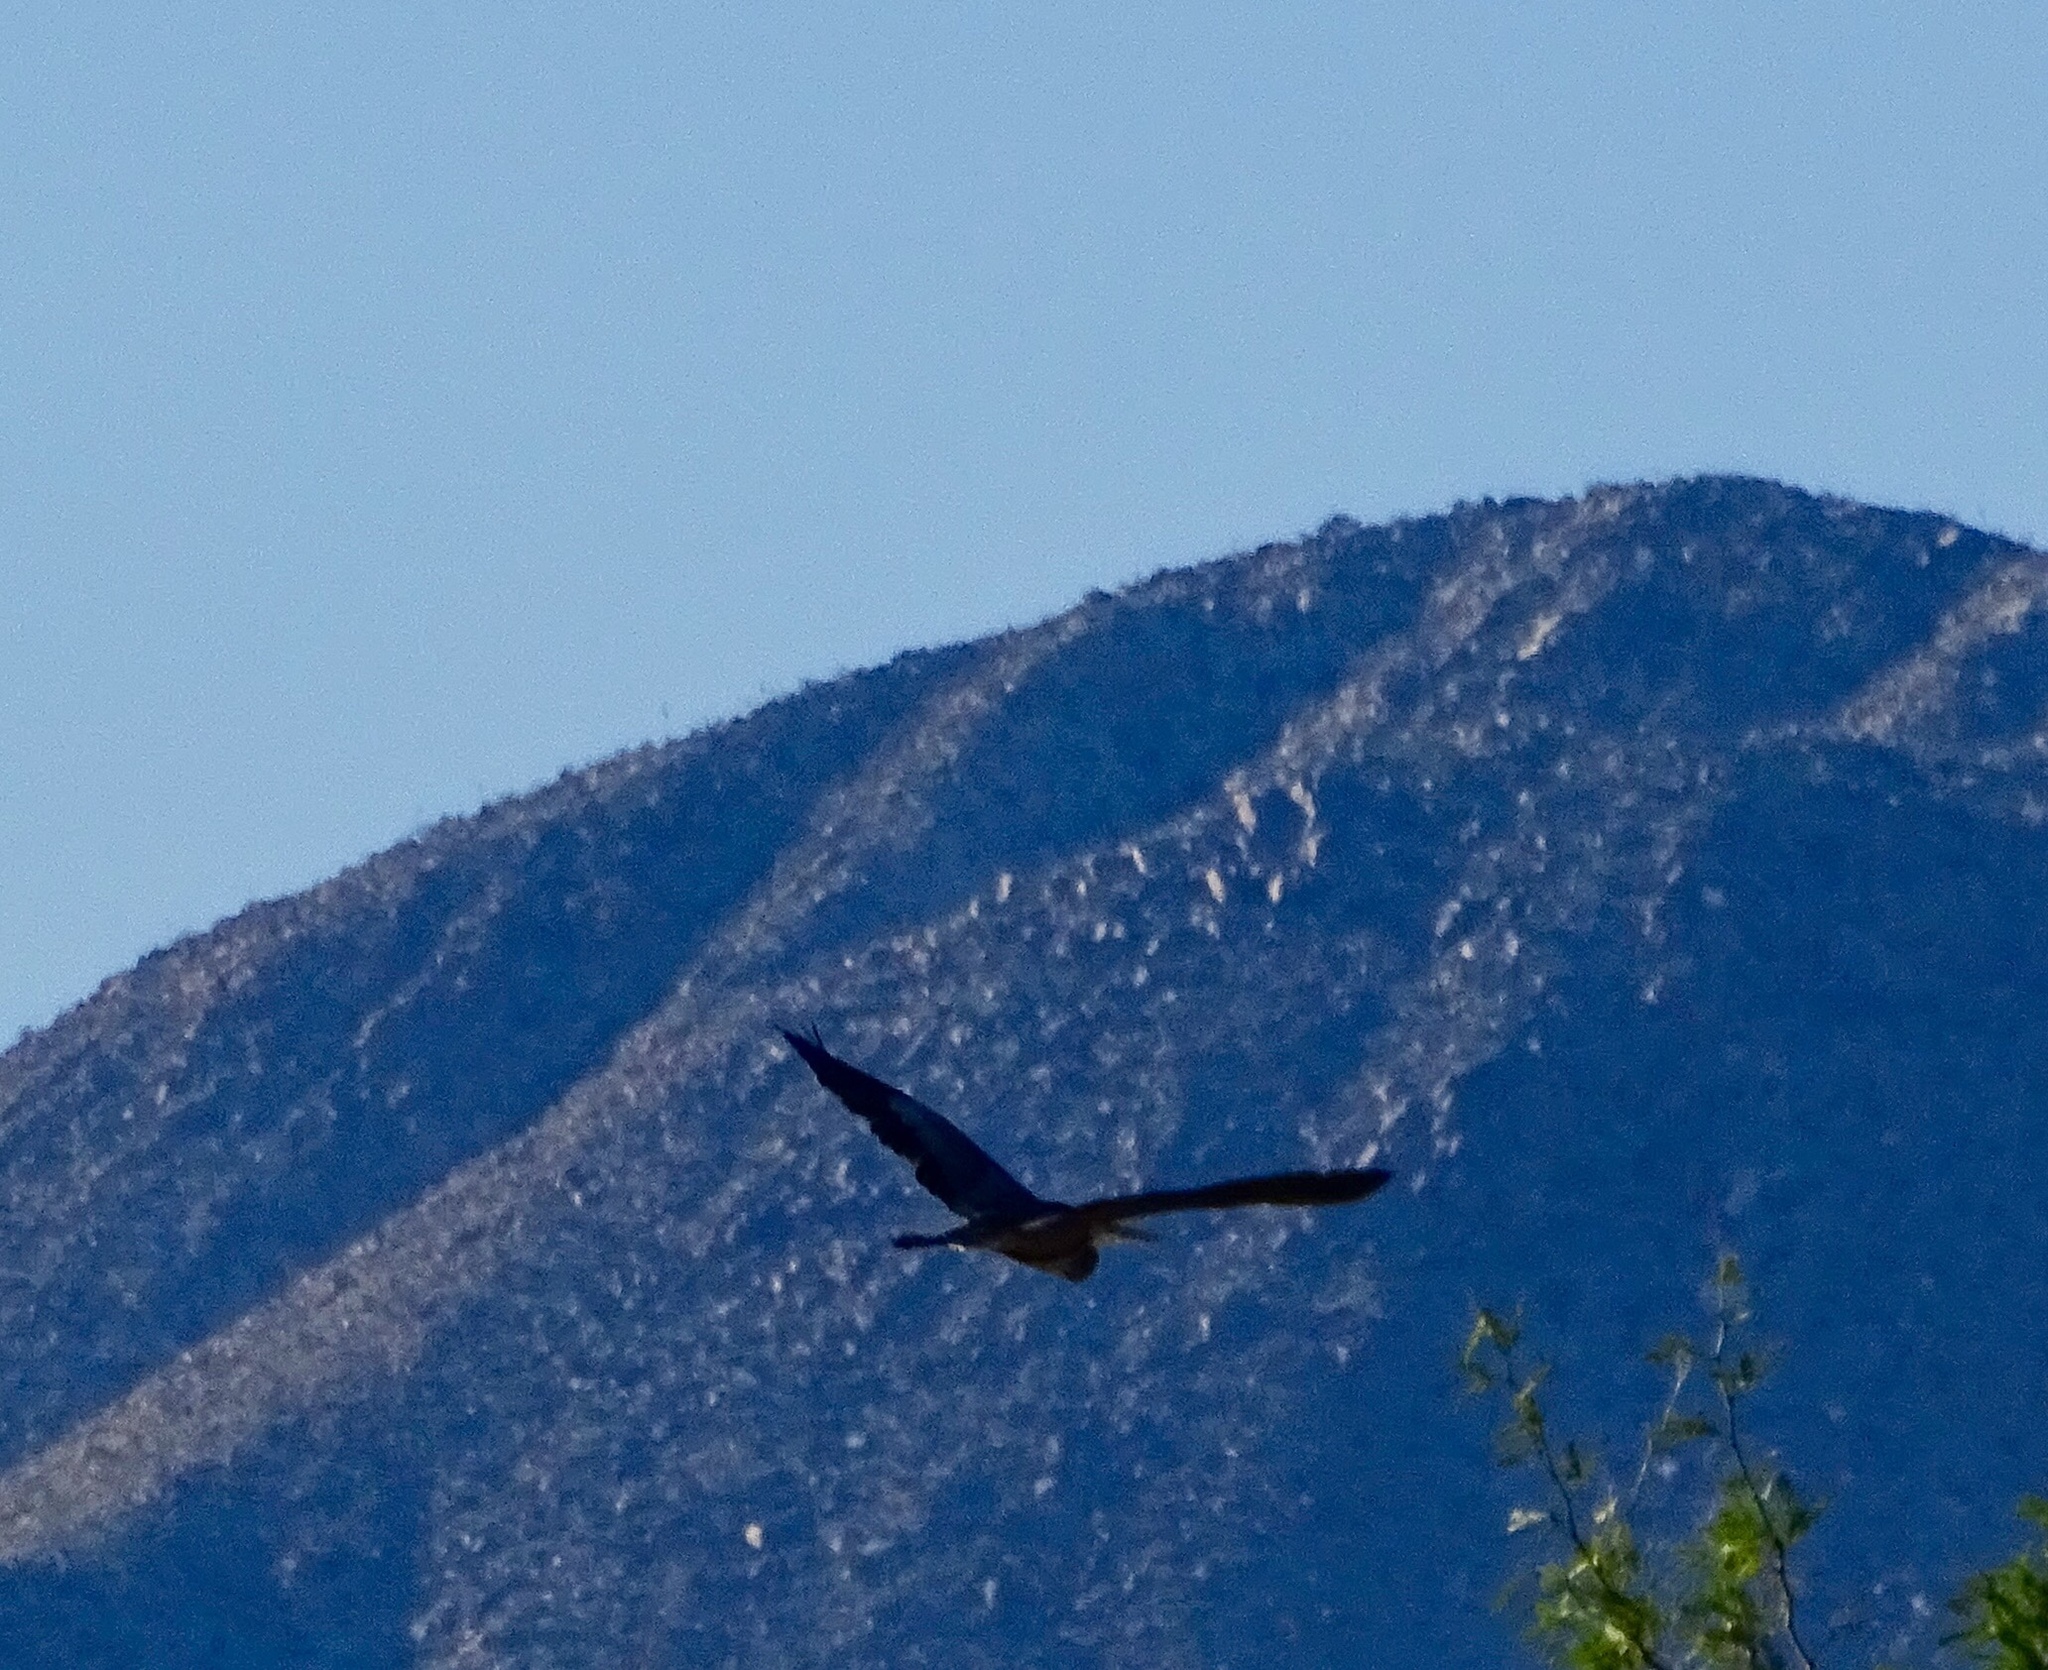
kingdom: Animalia
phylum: Chordata
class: Aves
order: Pelecaniformes
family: Ardeidae
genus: Ardea
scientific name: Ardea herodias
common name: Great blue heron
